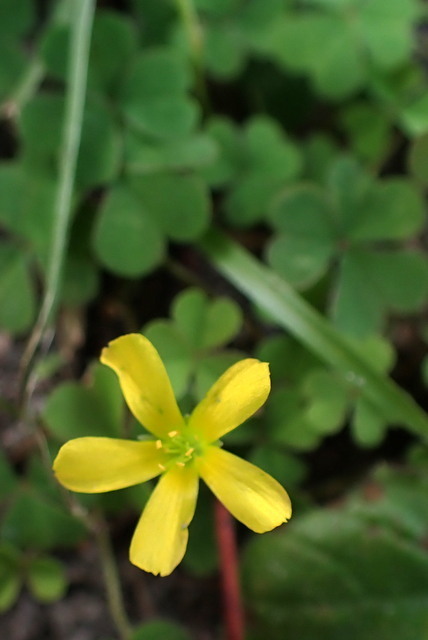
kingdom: Plantae
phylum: Tracheophyta
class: Magnoliopsida
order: Oxalidales
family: Oxalidaceae
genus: Oxalis
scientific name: Oxalis corniculata
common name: Procumbent yellow-sorrel
